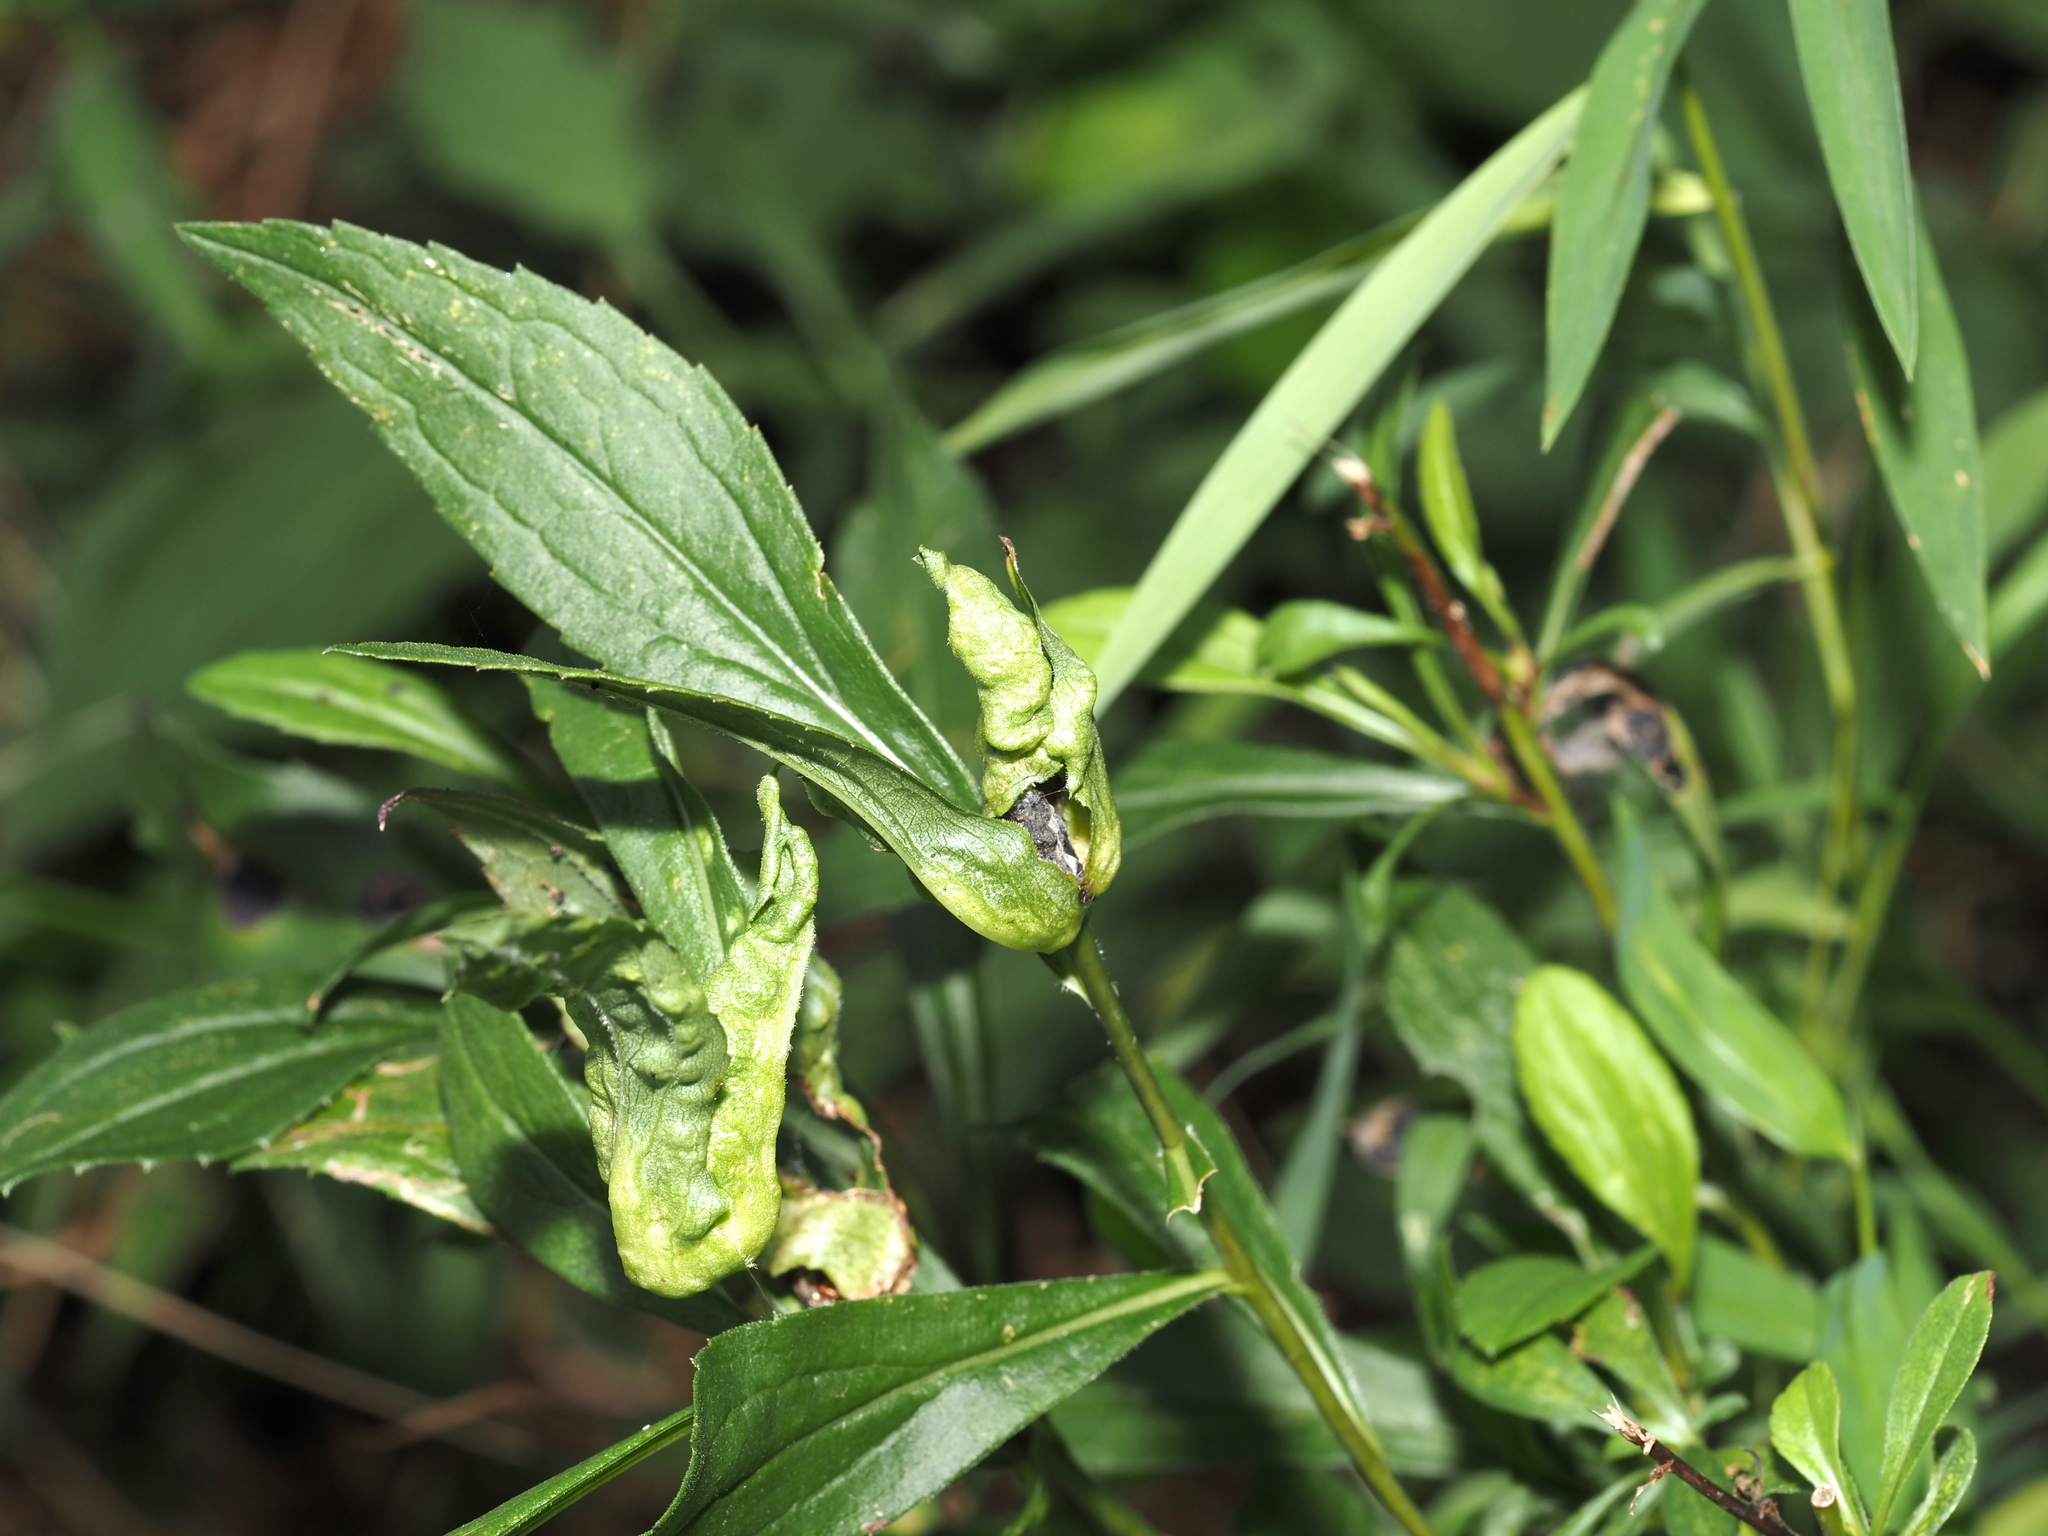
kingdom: Animalia
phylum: Arthropoda
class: Insecta
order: Diptera
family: Cecidomyiidae
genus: Dasineura
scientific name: Dasineura folliculi
